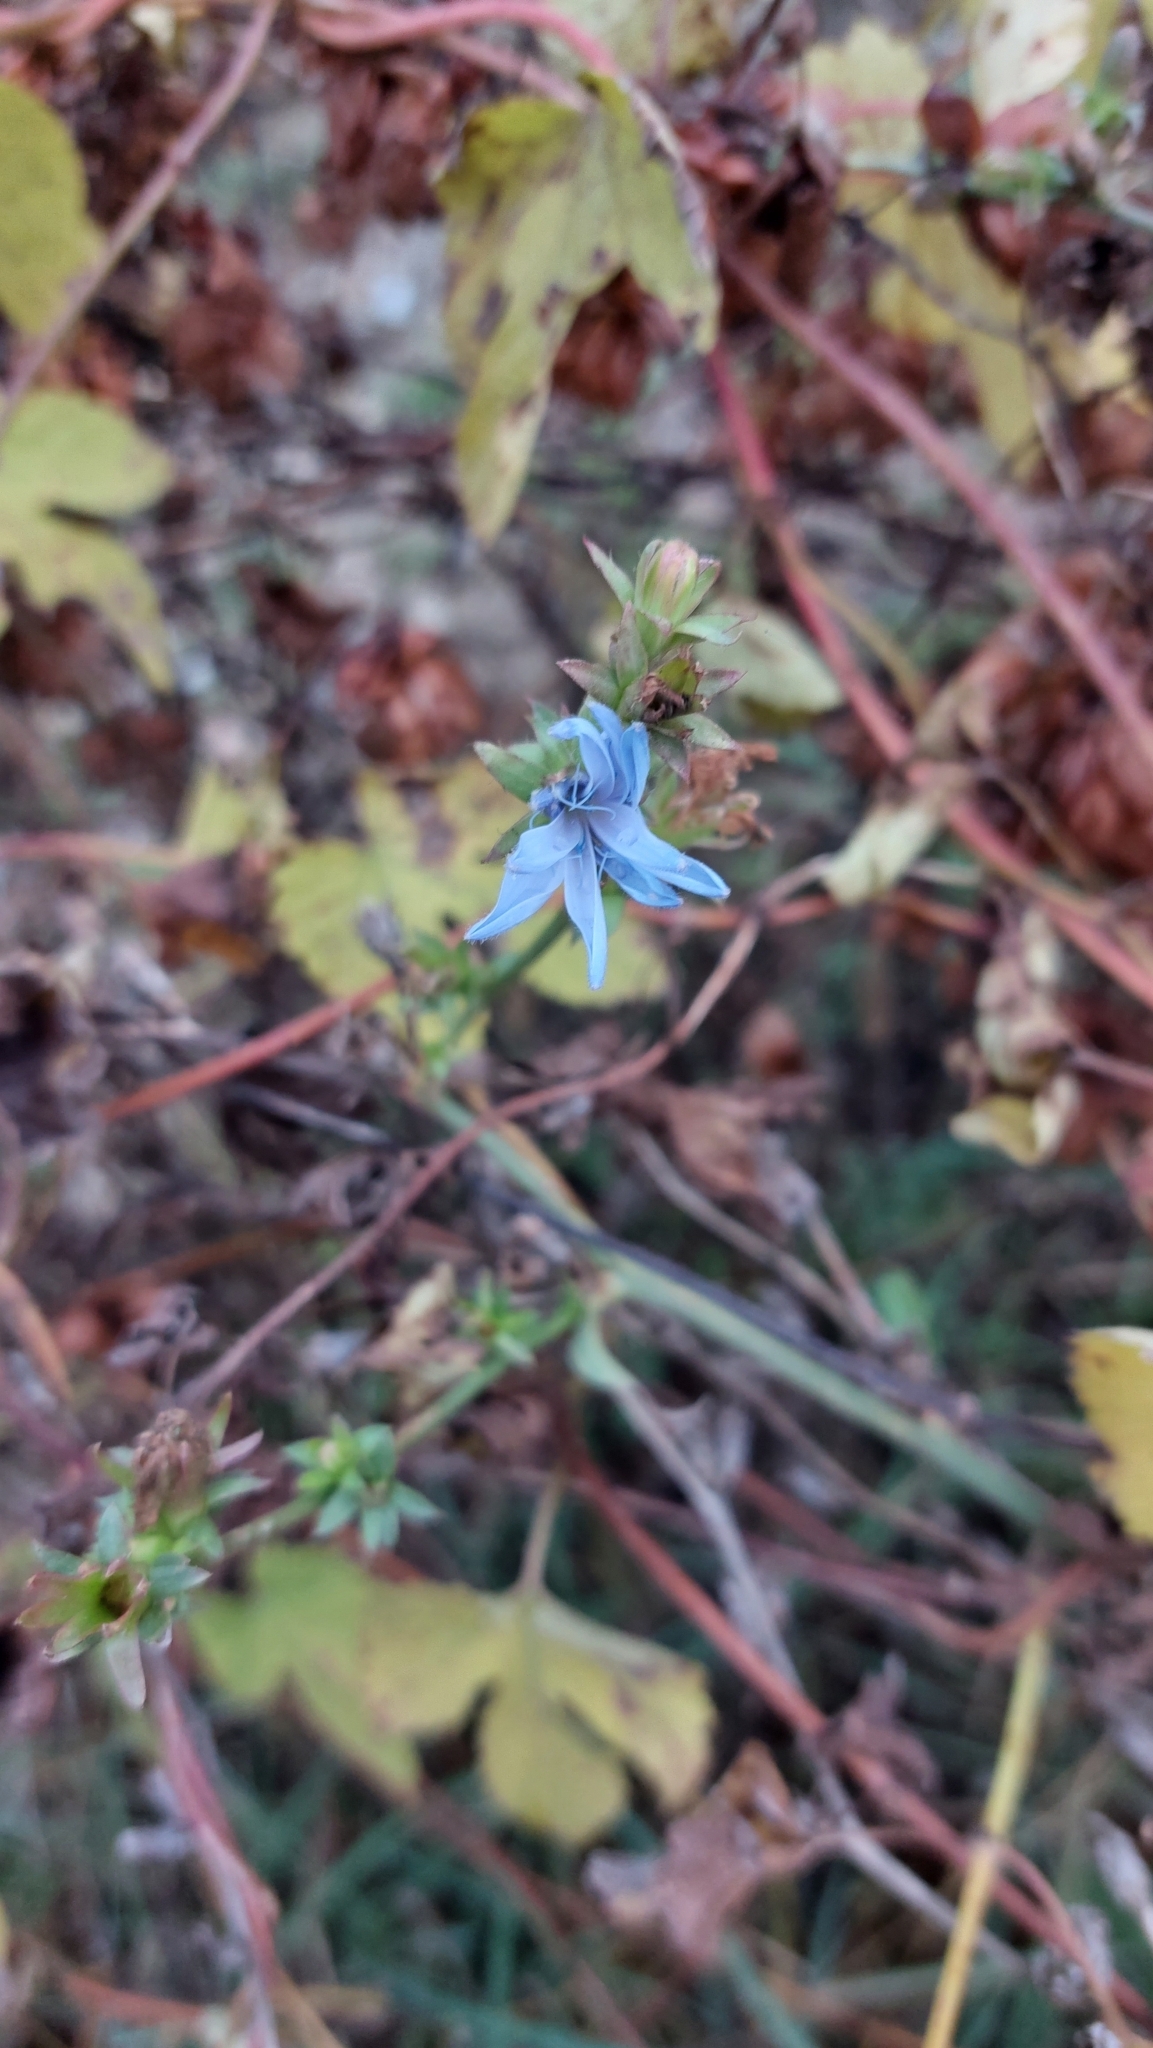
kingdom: Plantae
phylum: Tracheophyta
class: Magnoliopsida
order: Asterales
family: Asteraceae
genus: Cichorium
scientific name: Cichorium intybus
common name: Chicory
